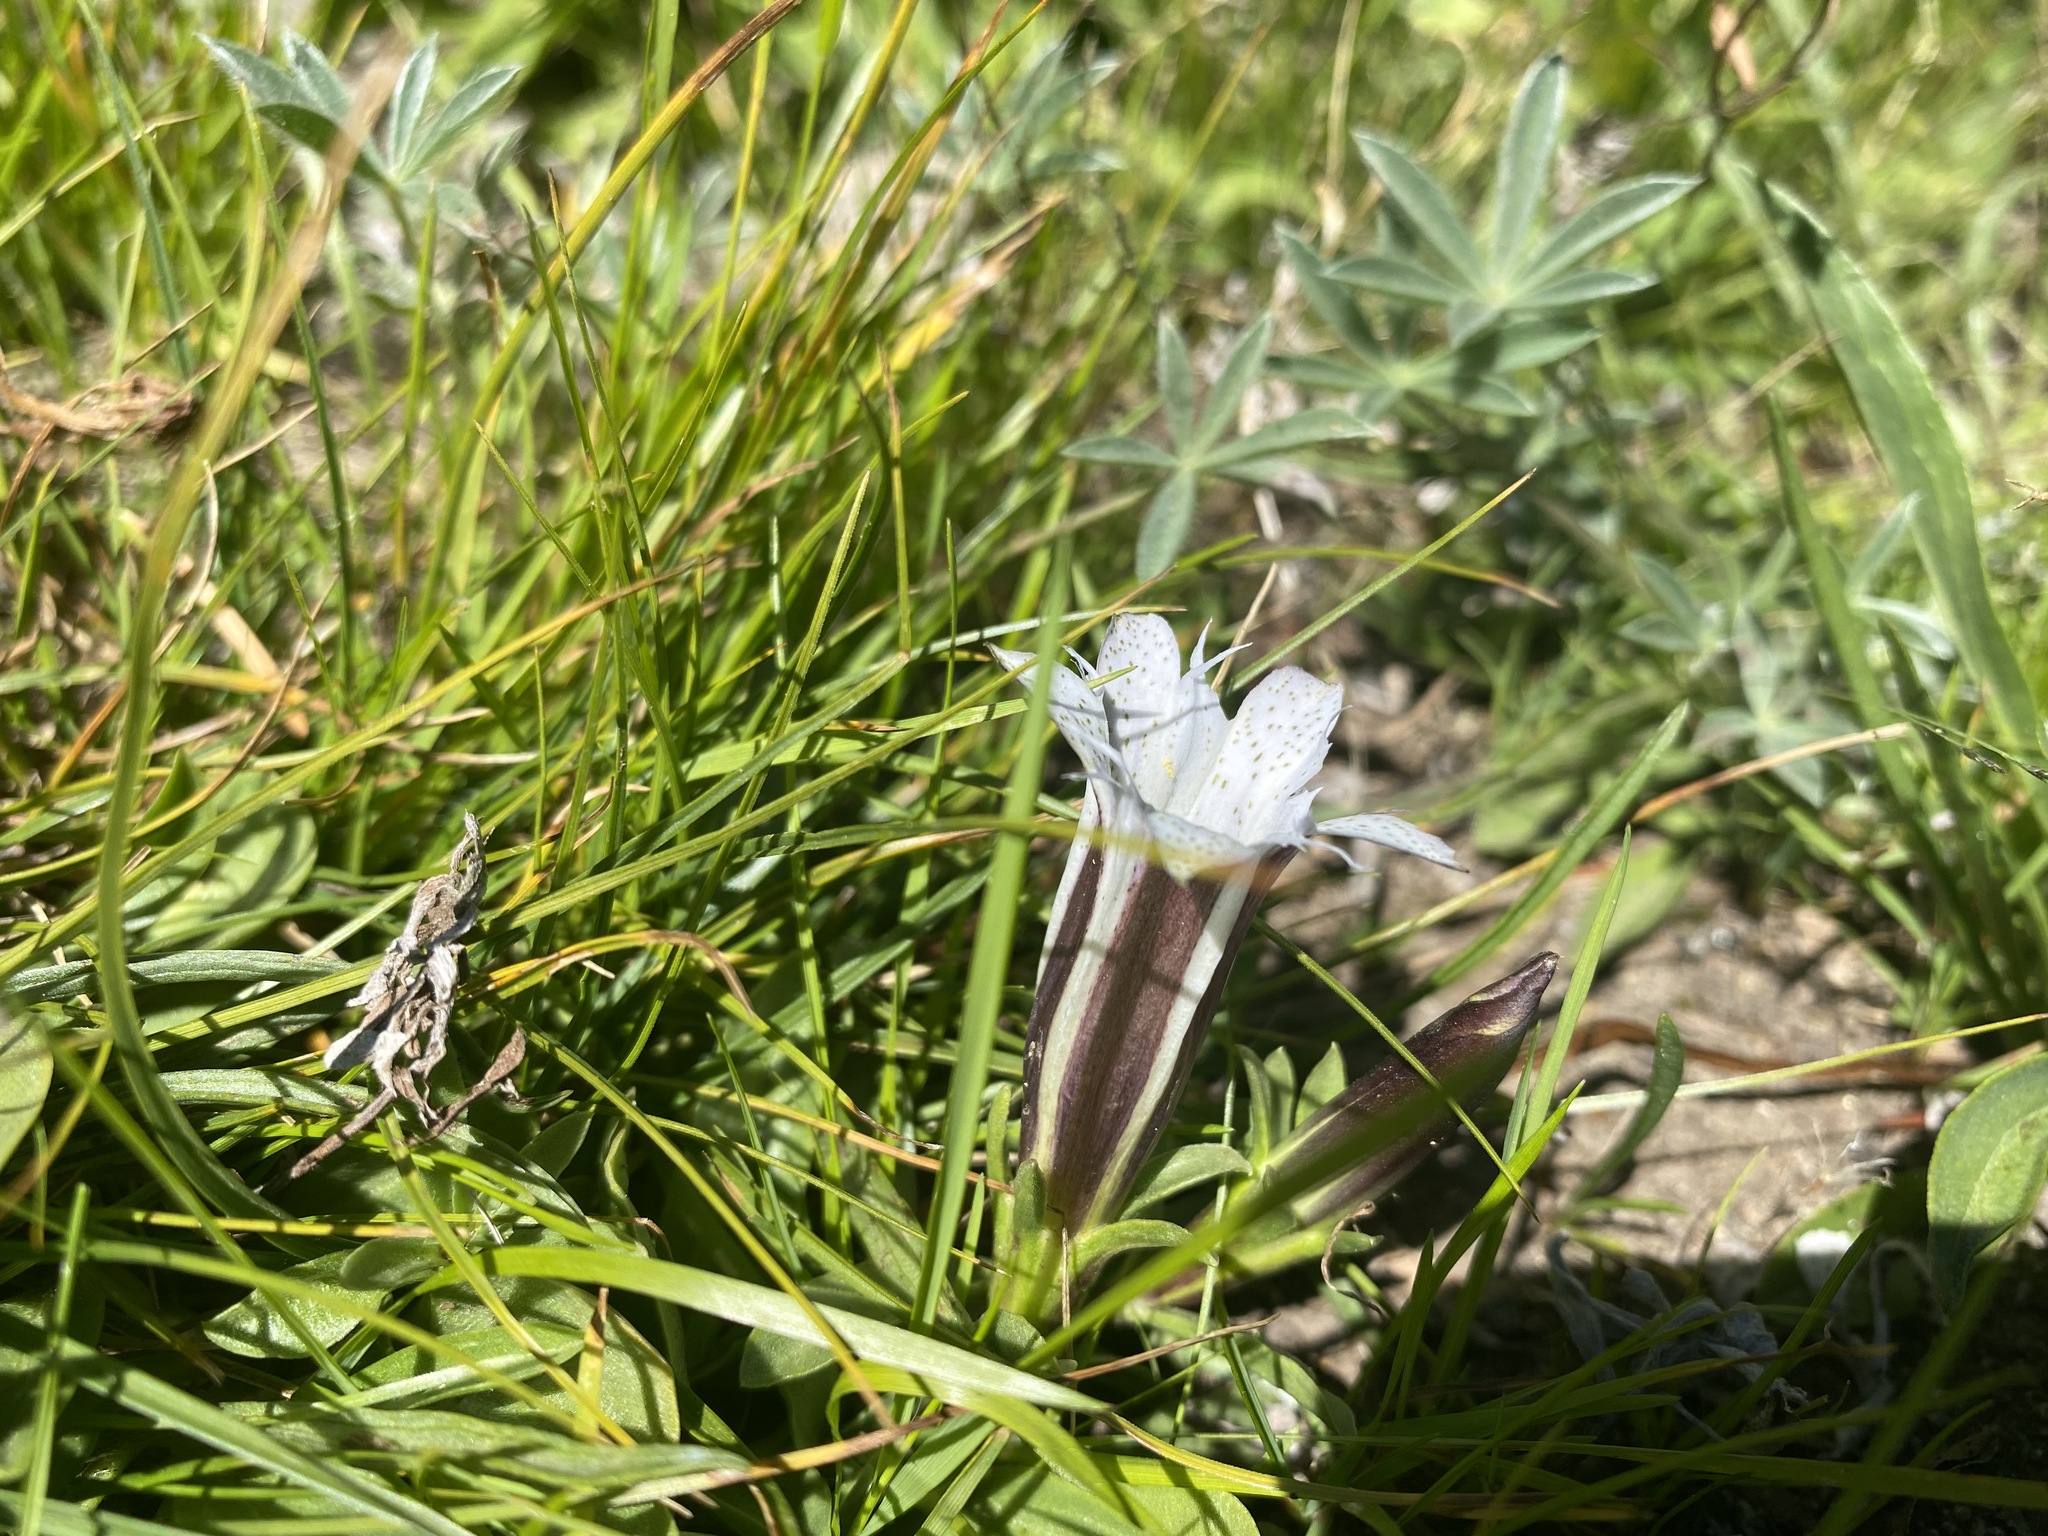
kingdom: Plantae
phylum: Tracheophyta
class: Magnoliopsida
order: Gentianales
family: Gentianaceae
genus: Gentiana
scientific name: Gentiana newberryi
